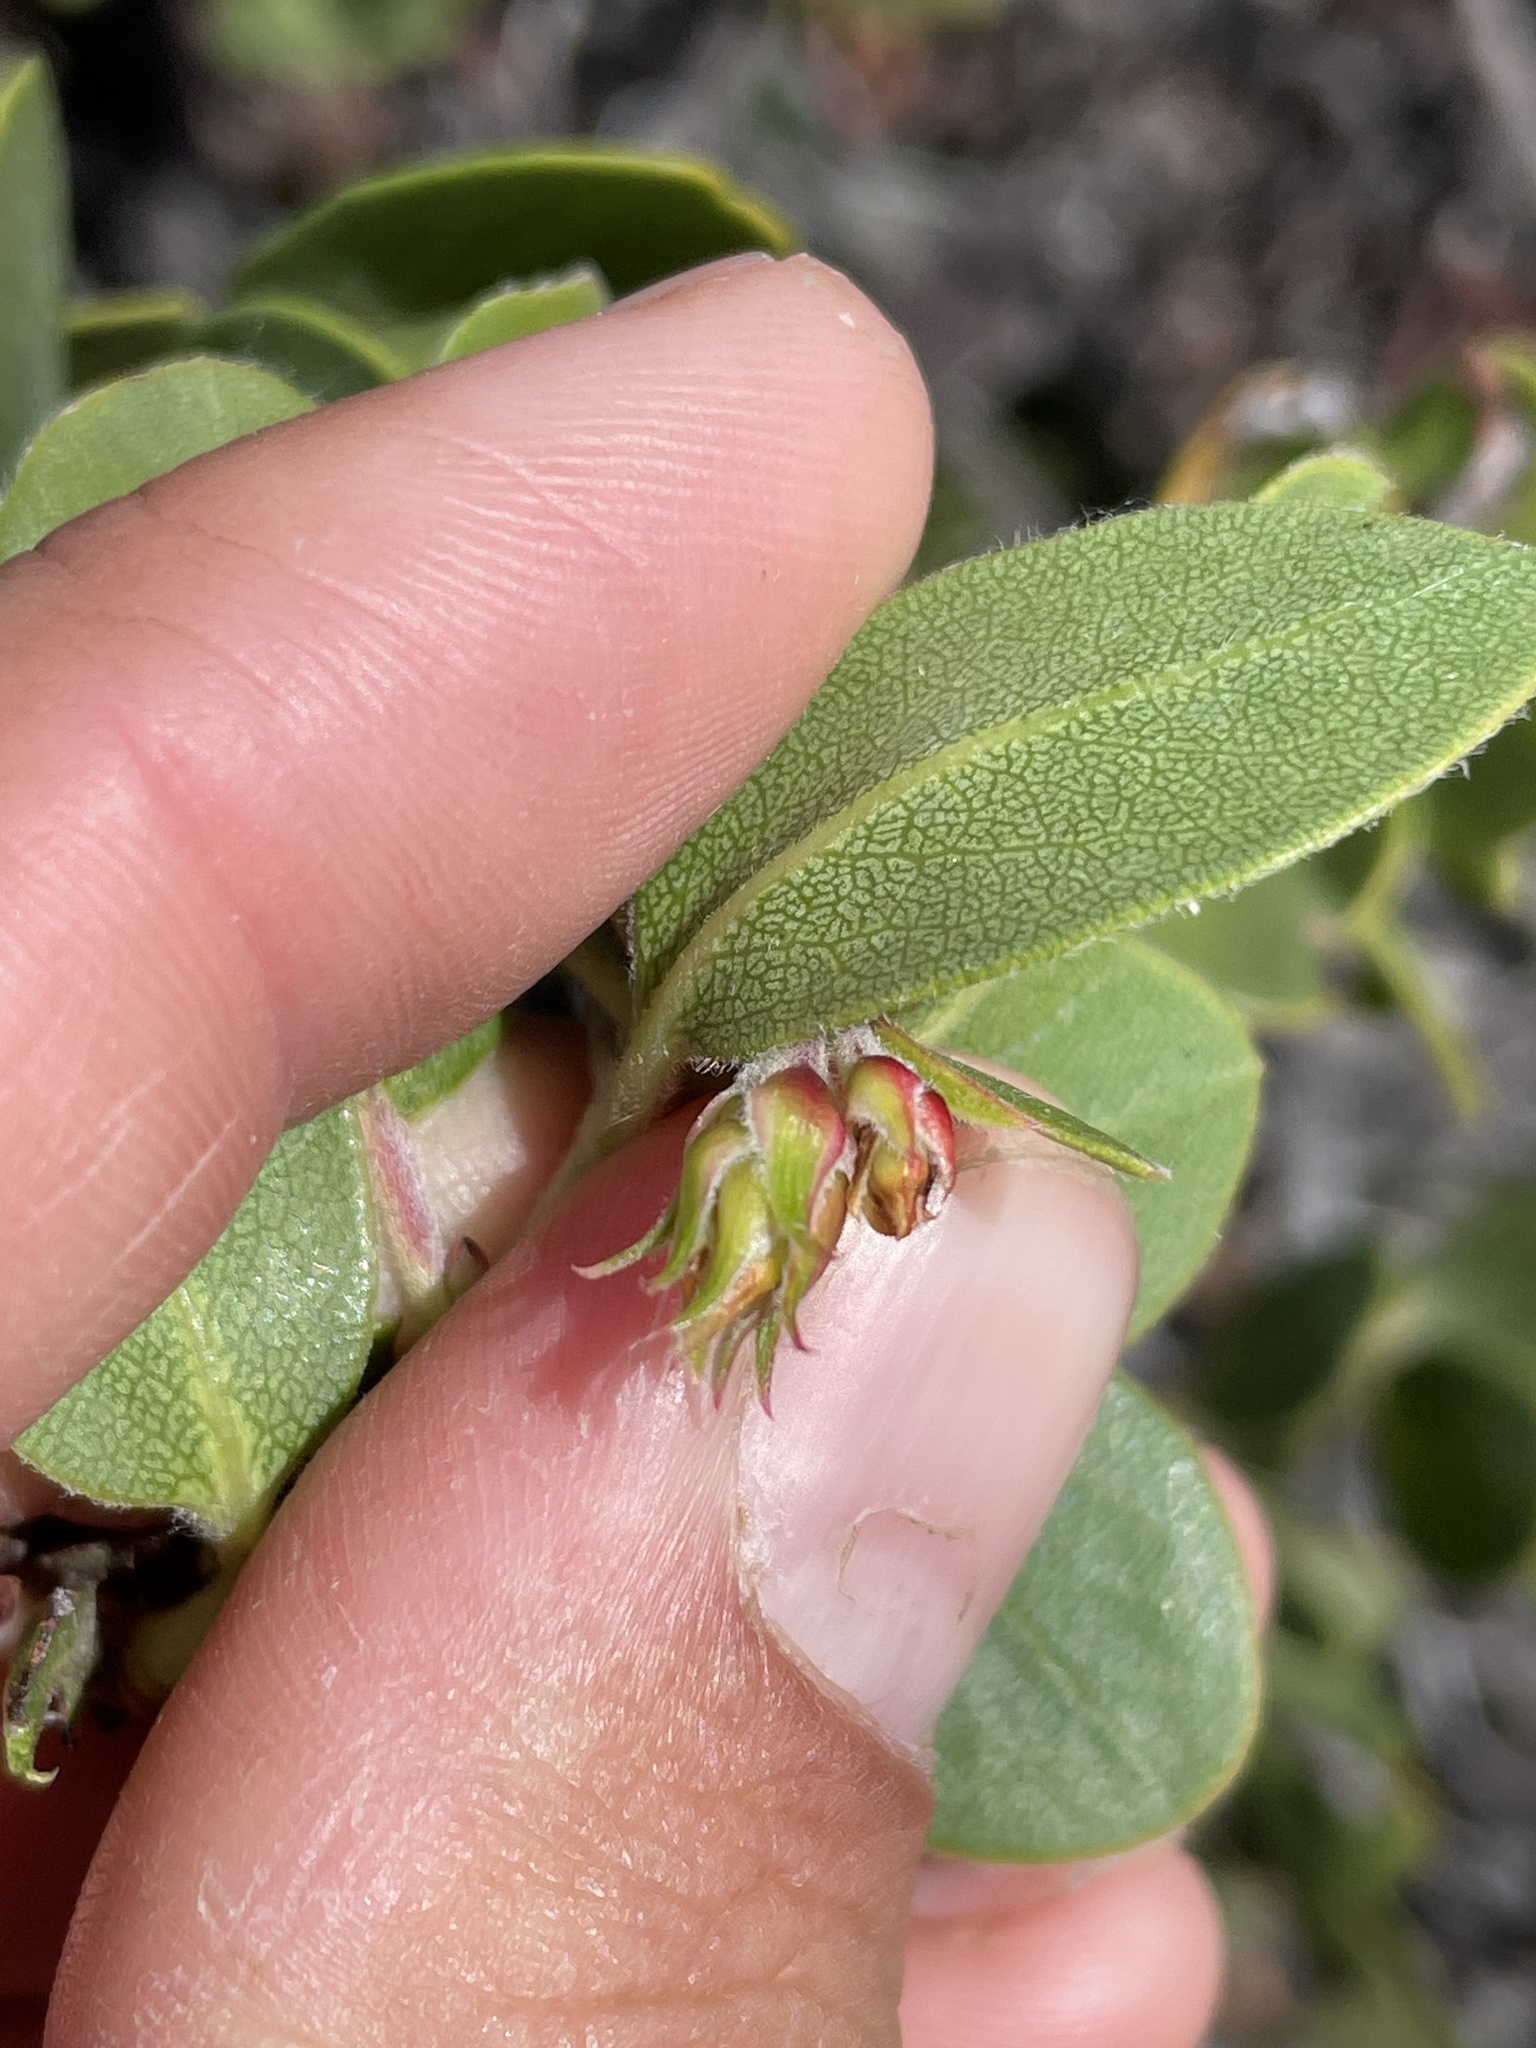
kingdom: Plantae
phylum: Tracheophyta
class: Magnoliopsida
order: Ericales
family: Ericaceae
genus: Arctostaphylos
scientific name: Arctostaphylos crustacea
